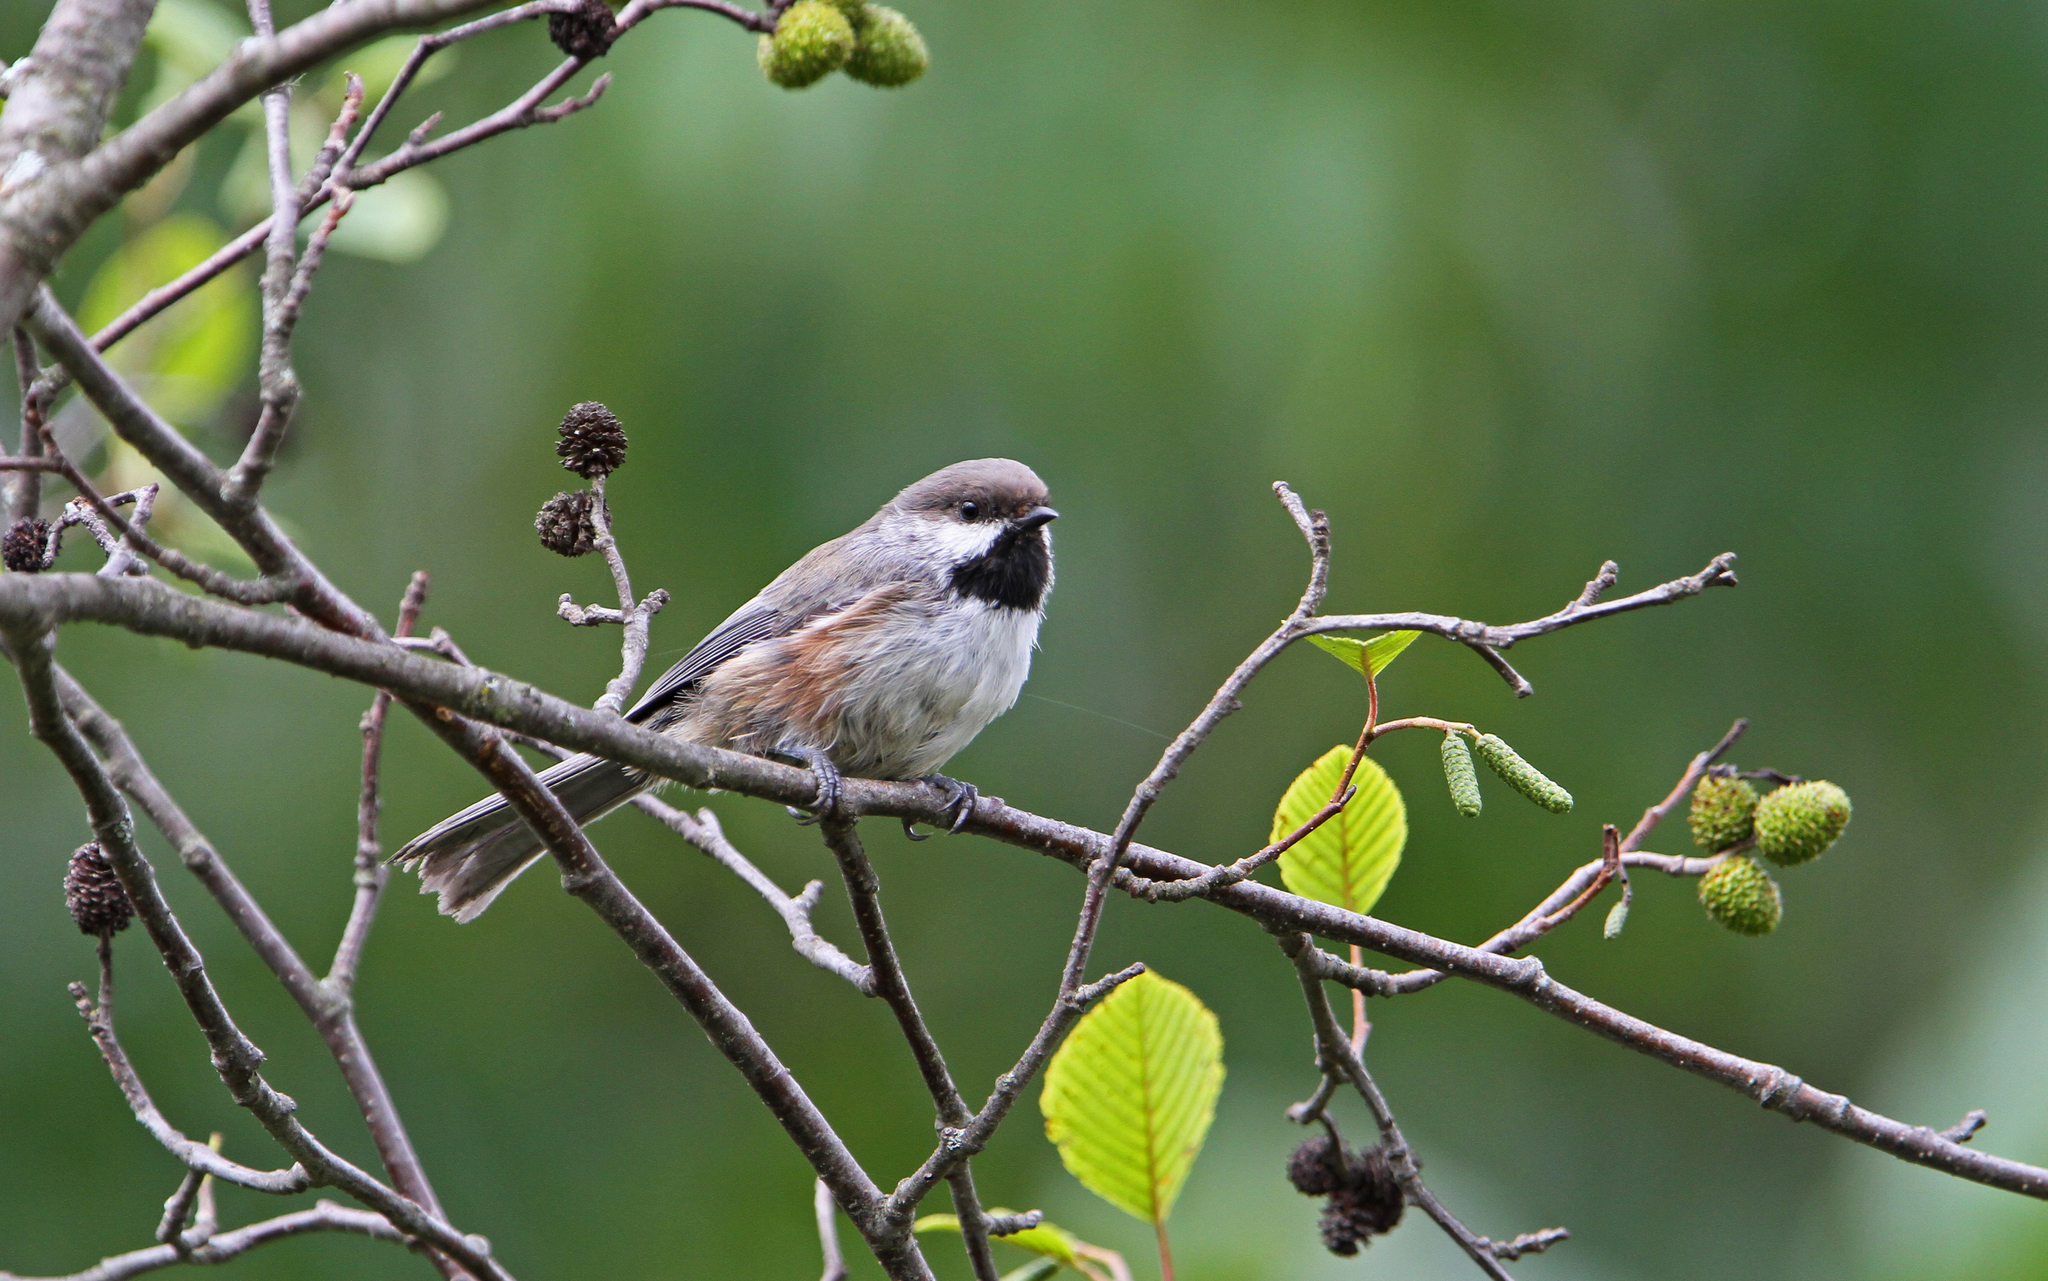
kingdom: Animalia
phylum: Chordata
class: Aves
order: Passeriformes
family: Paridae
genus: Poecile
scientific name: Poecile hudsonicus
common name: Boreal chickadee
